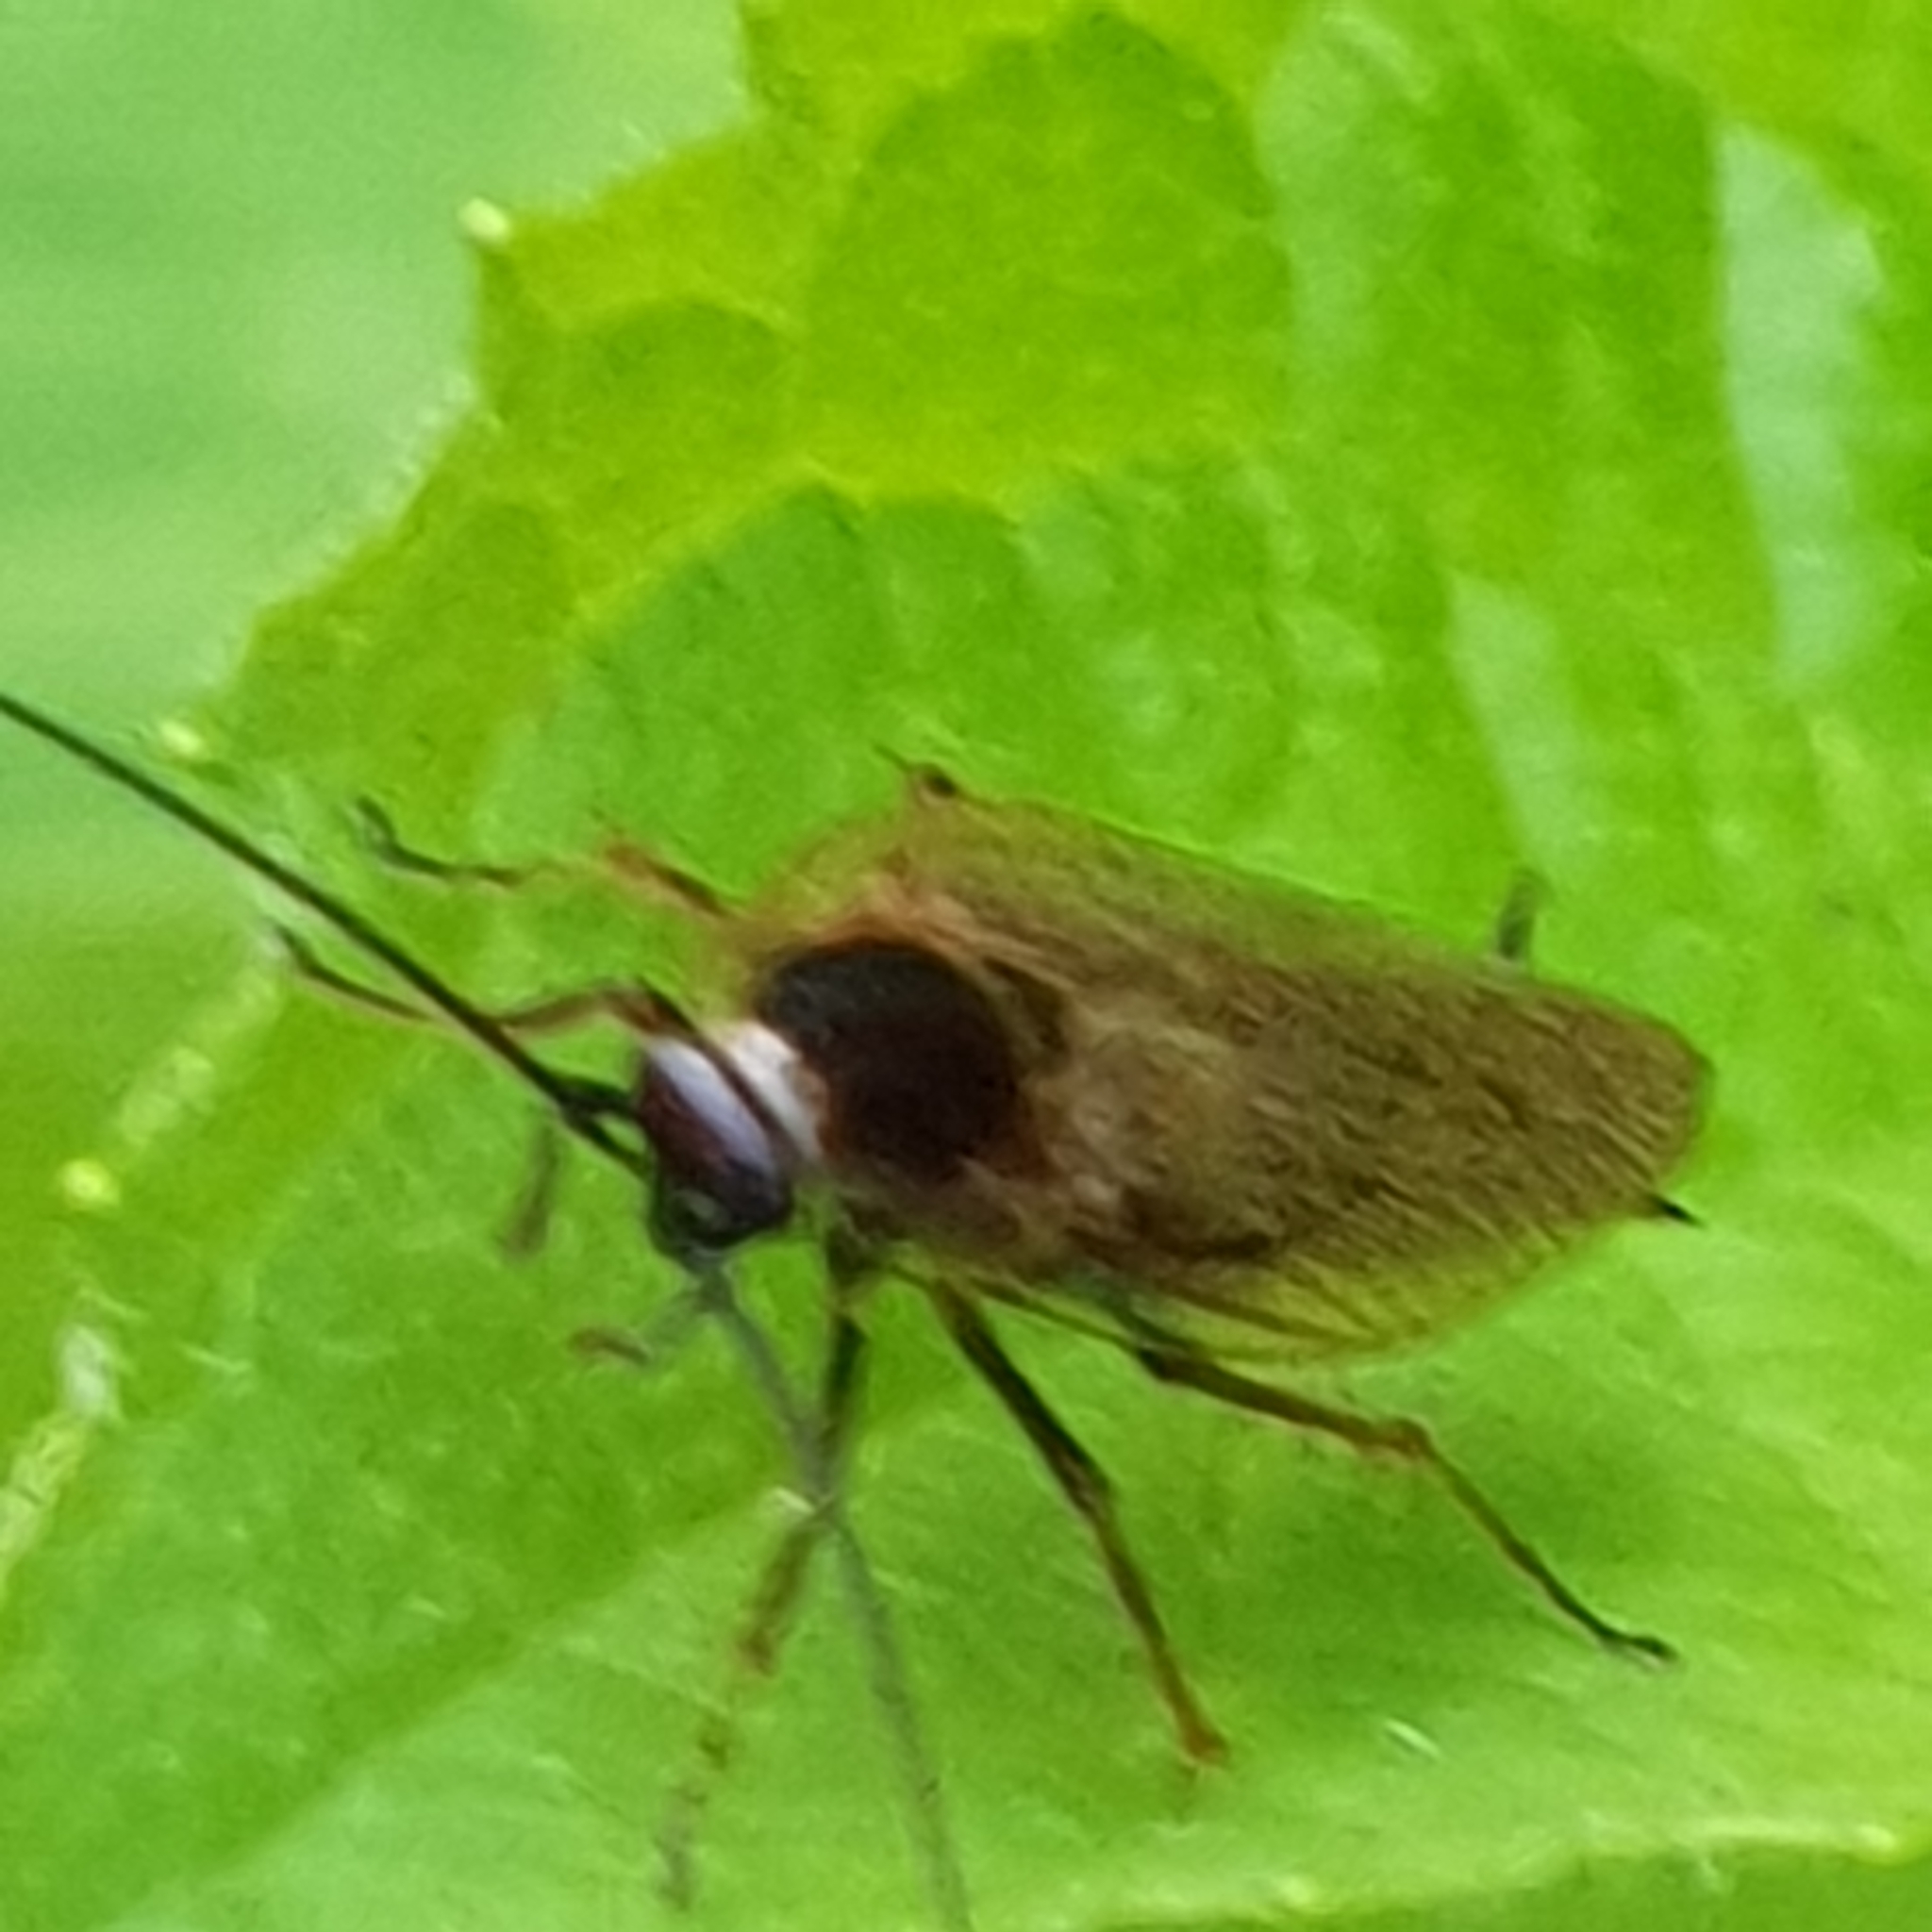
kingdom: Animalia
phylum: Arthropoda
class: Insecta
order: Blattodea
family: Ectobiidae
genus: Ectobius
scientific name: Ectobius lapponicus
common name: Dusky cockroach
